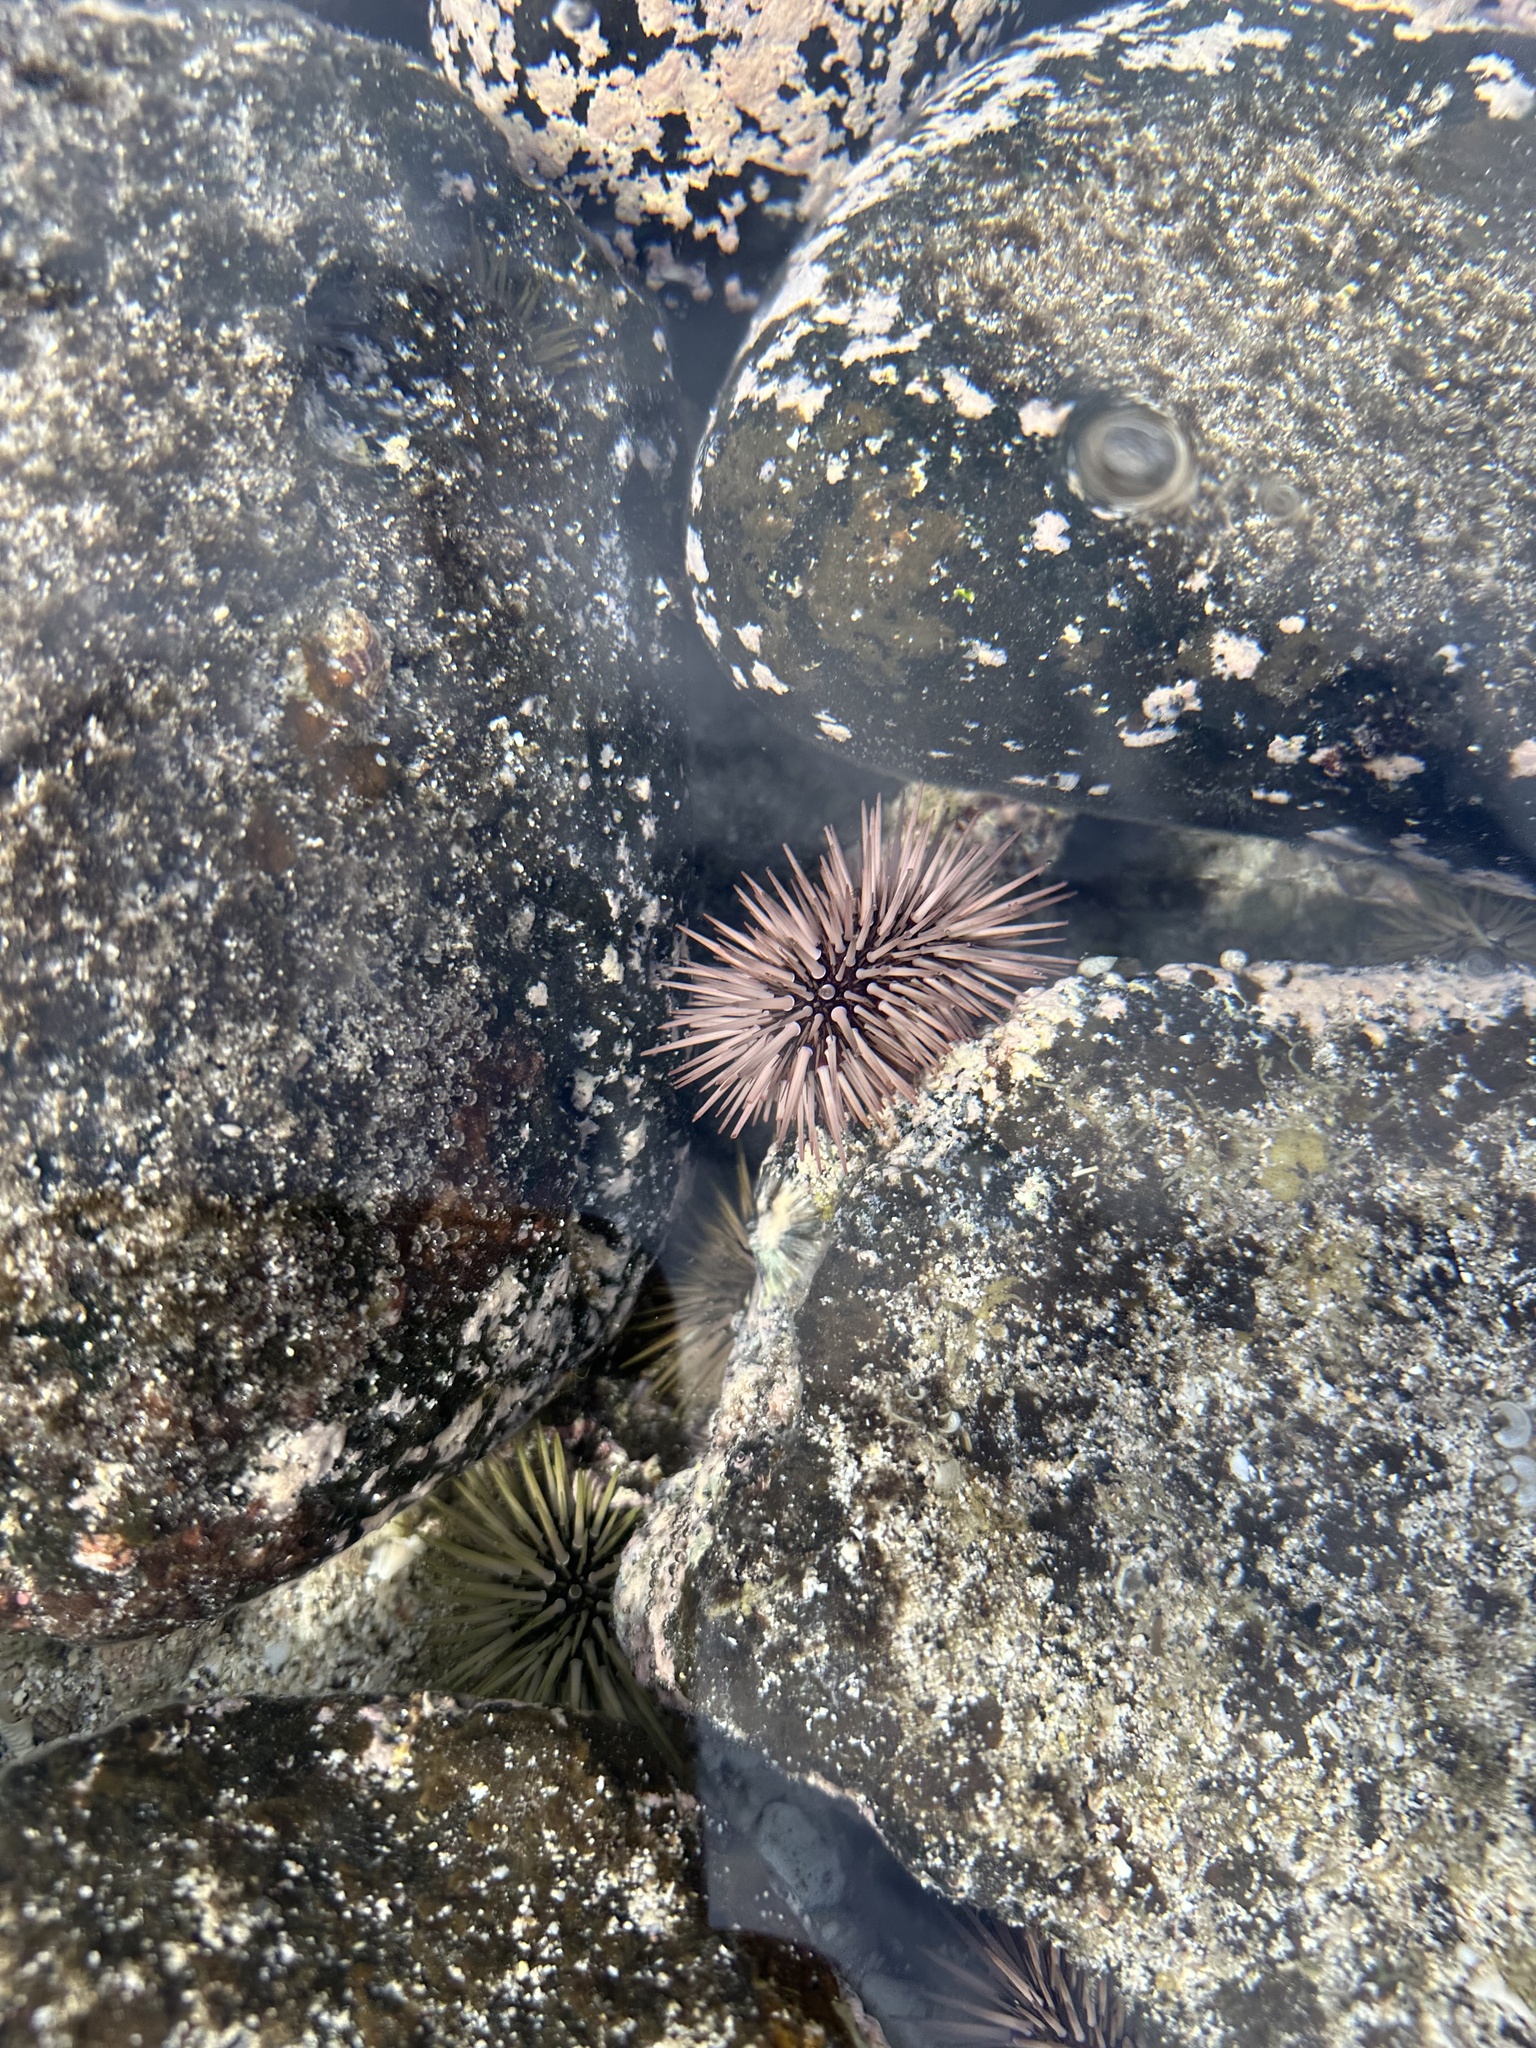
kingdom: Animalia
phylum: Echinodermata
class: Echinoidea
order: Camarodonta
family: Echinometridae
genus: Echinometra
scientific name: Echinometra mathaei
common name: Rock-boring urchin
